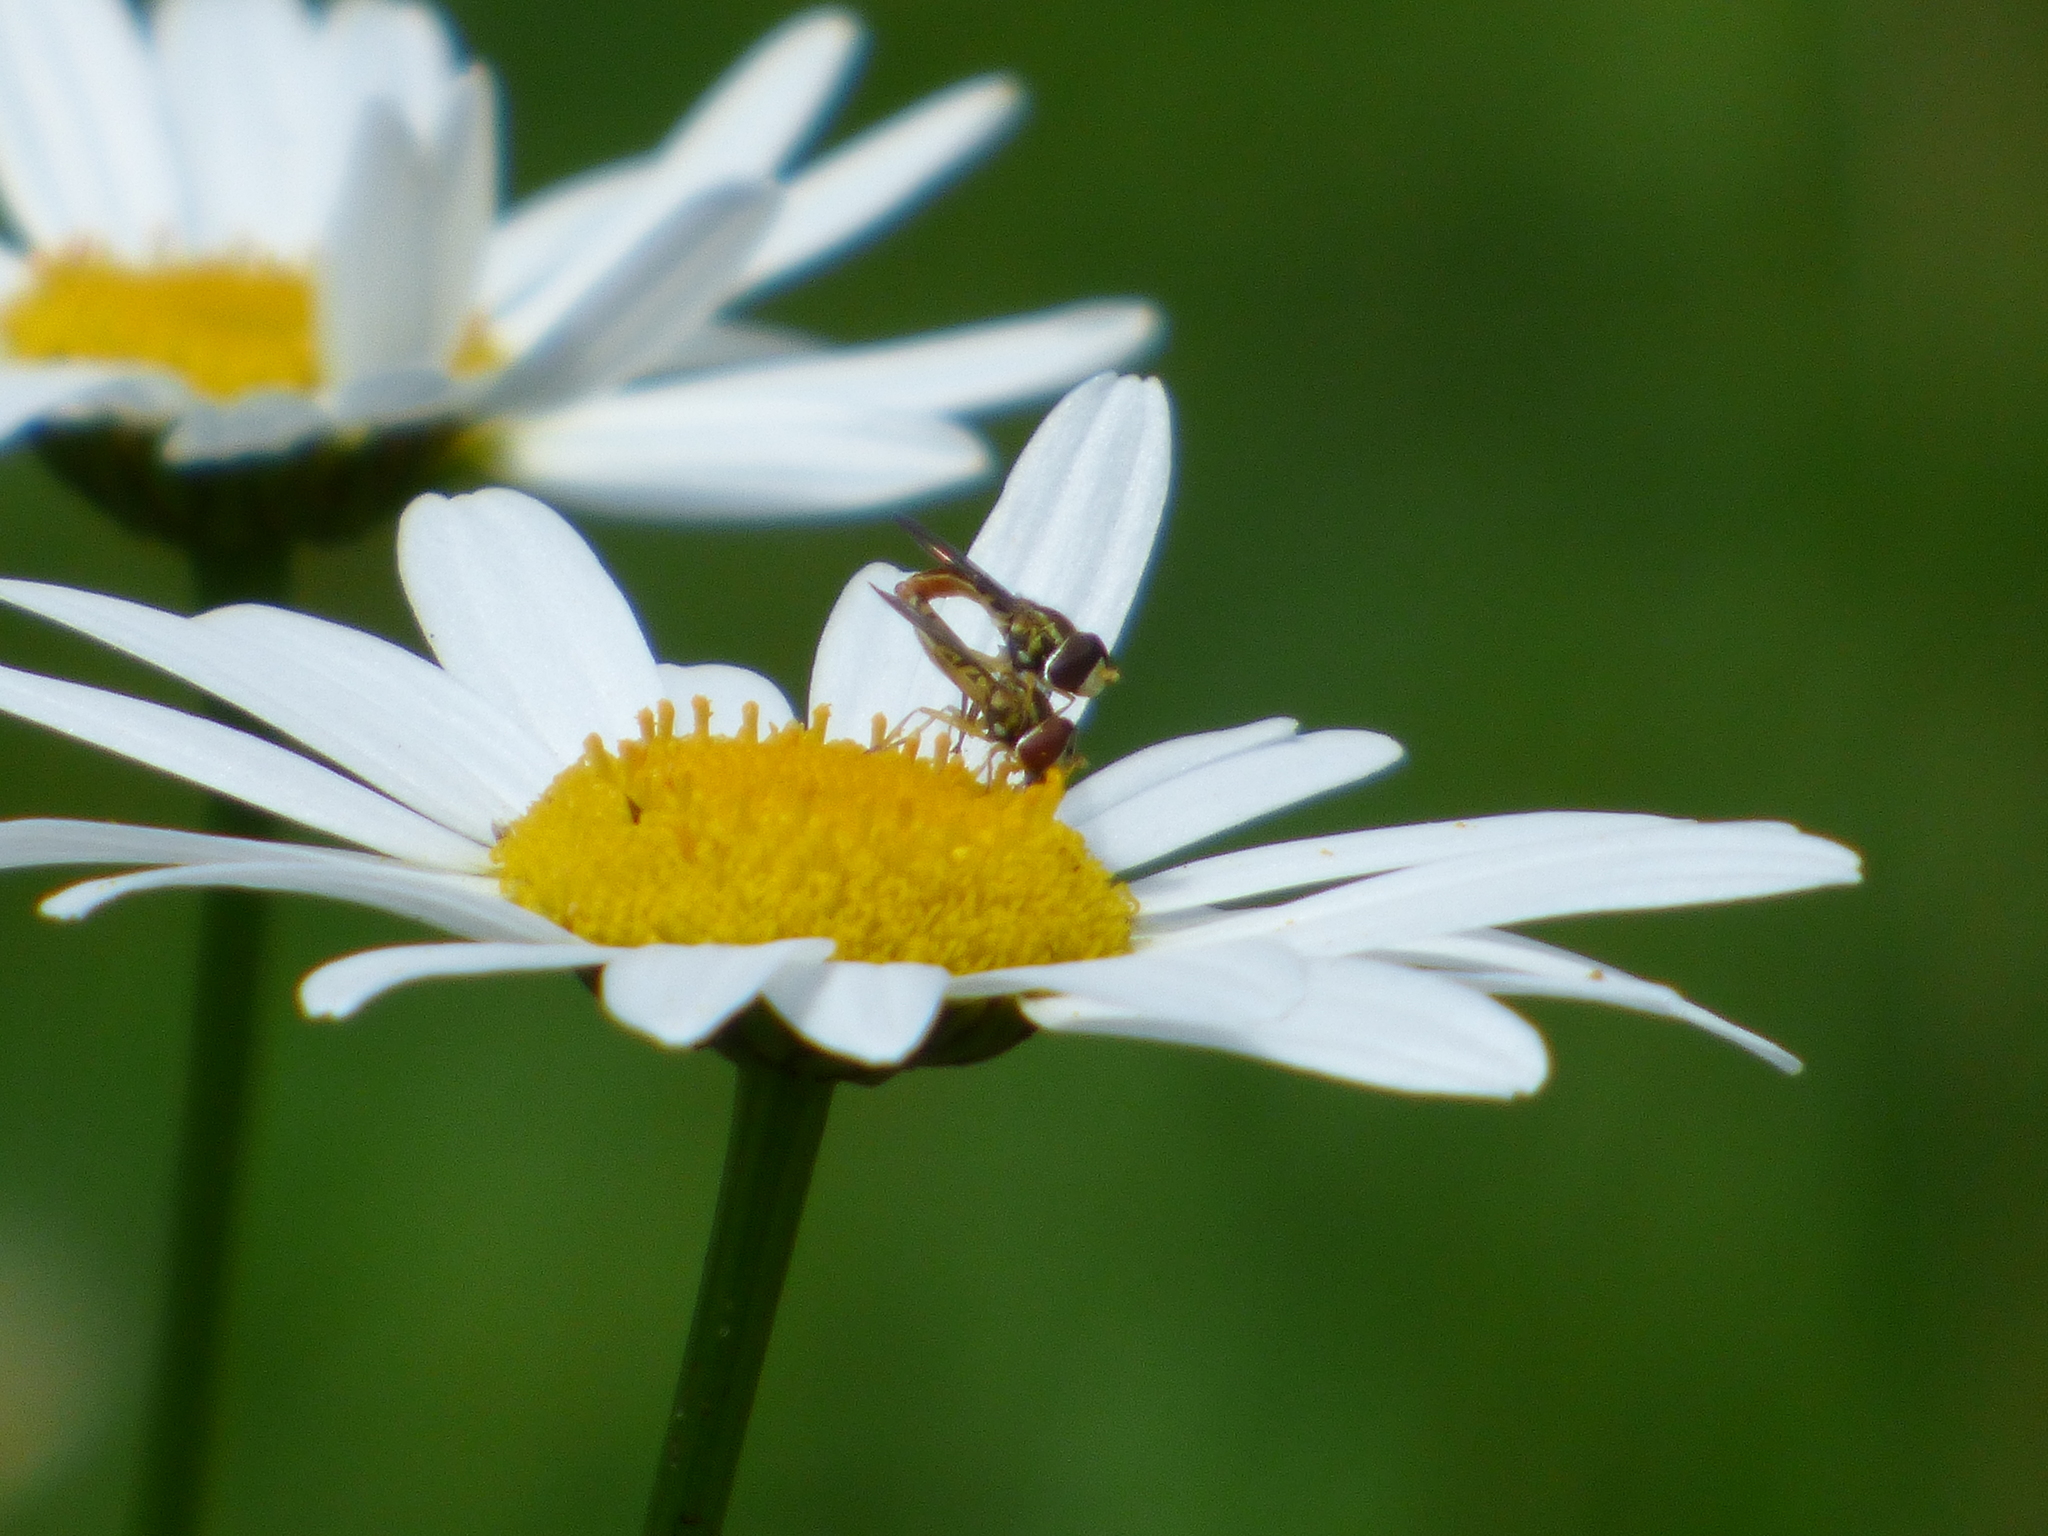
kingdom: Animalia
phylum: Arthropoda
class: Insecta
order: Diptera
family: Syrphidae
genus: Toxomerus
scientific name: Toxomerus marginatus
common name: Syrphid fly
